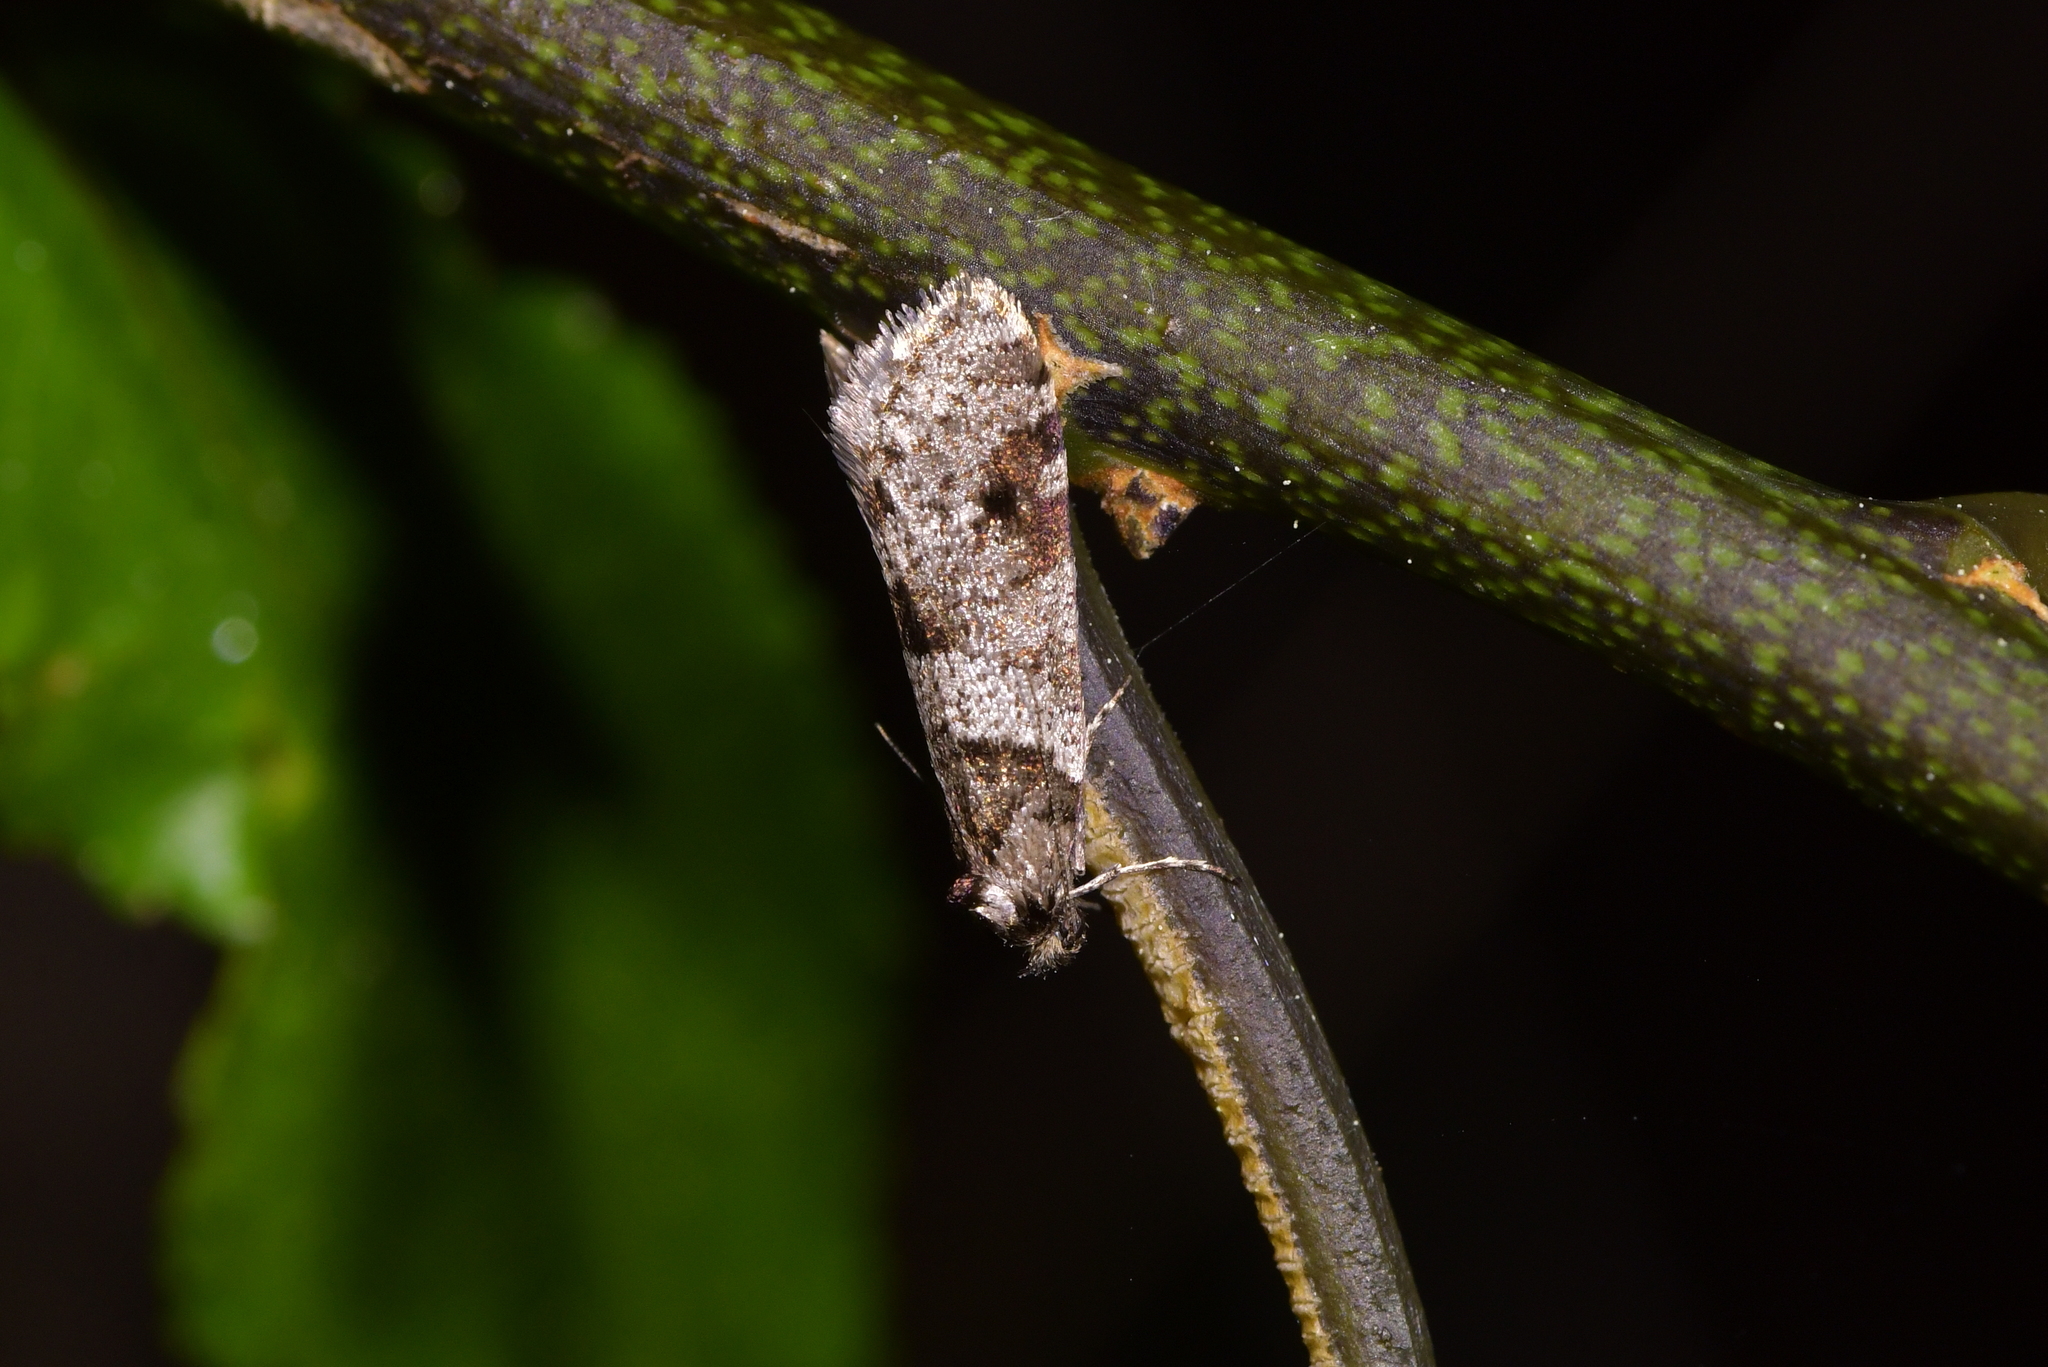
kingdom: Animalia
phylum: Arthropoda
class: Insecta
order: Lepidoptera
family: Psychidae
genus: Lepidoscia
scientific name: Lepidoscia heliochares
